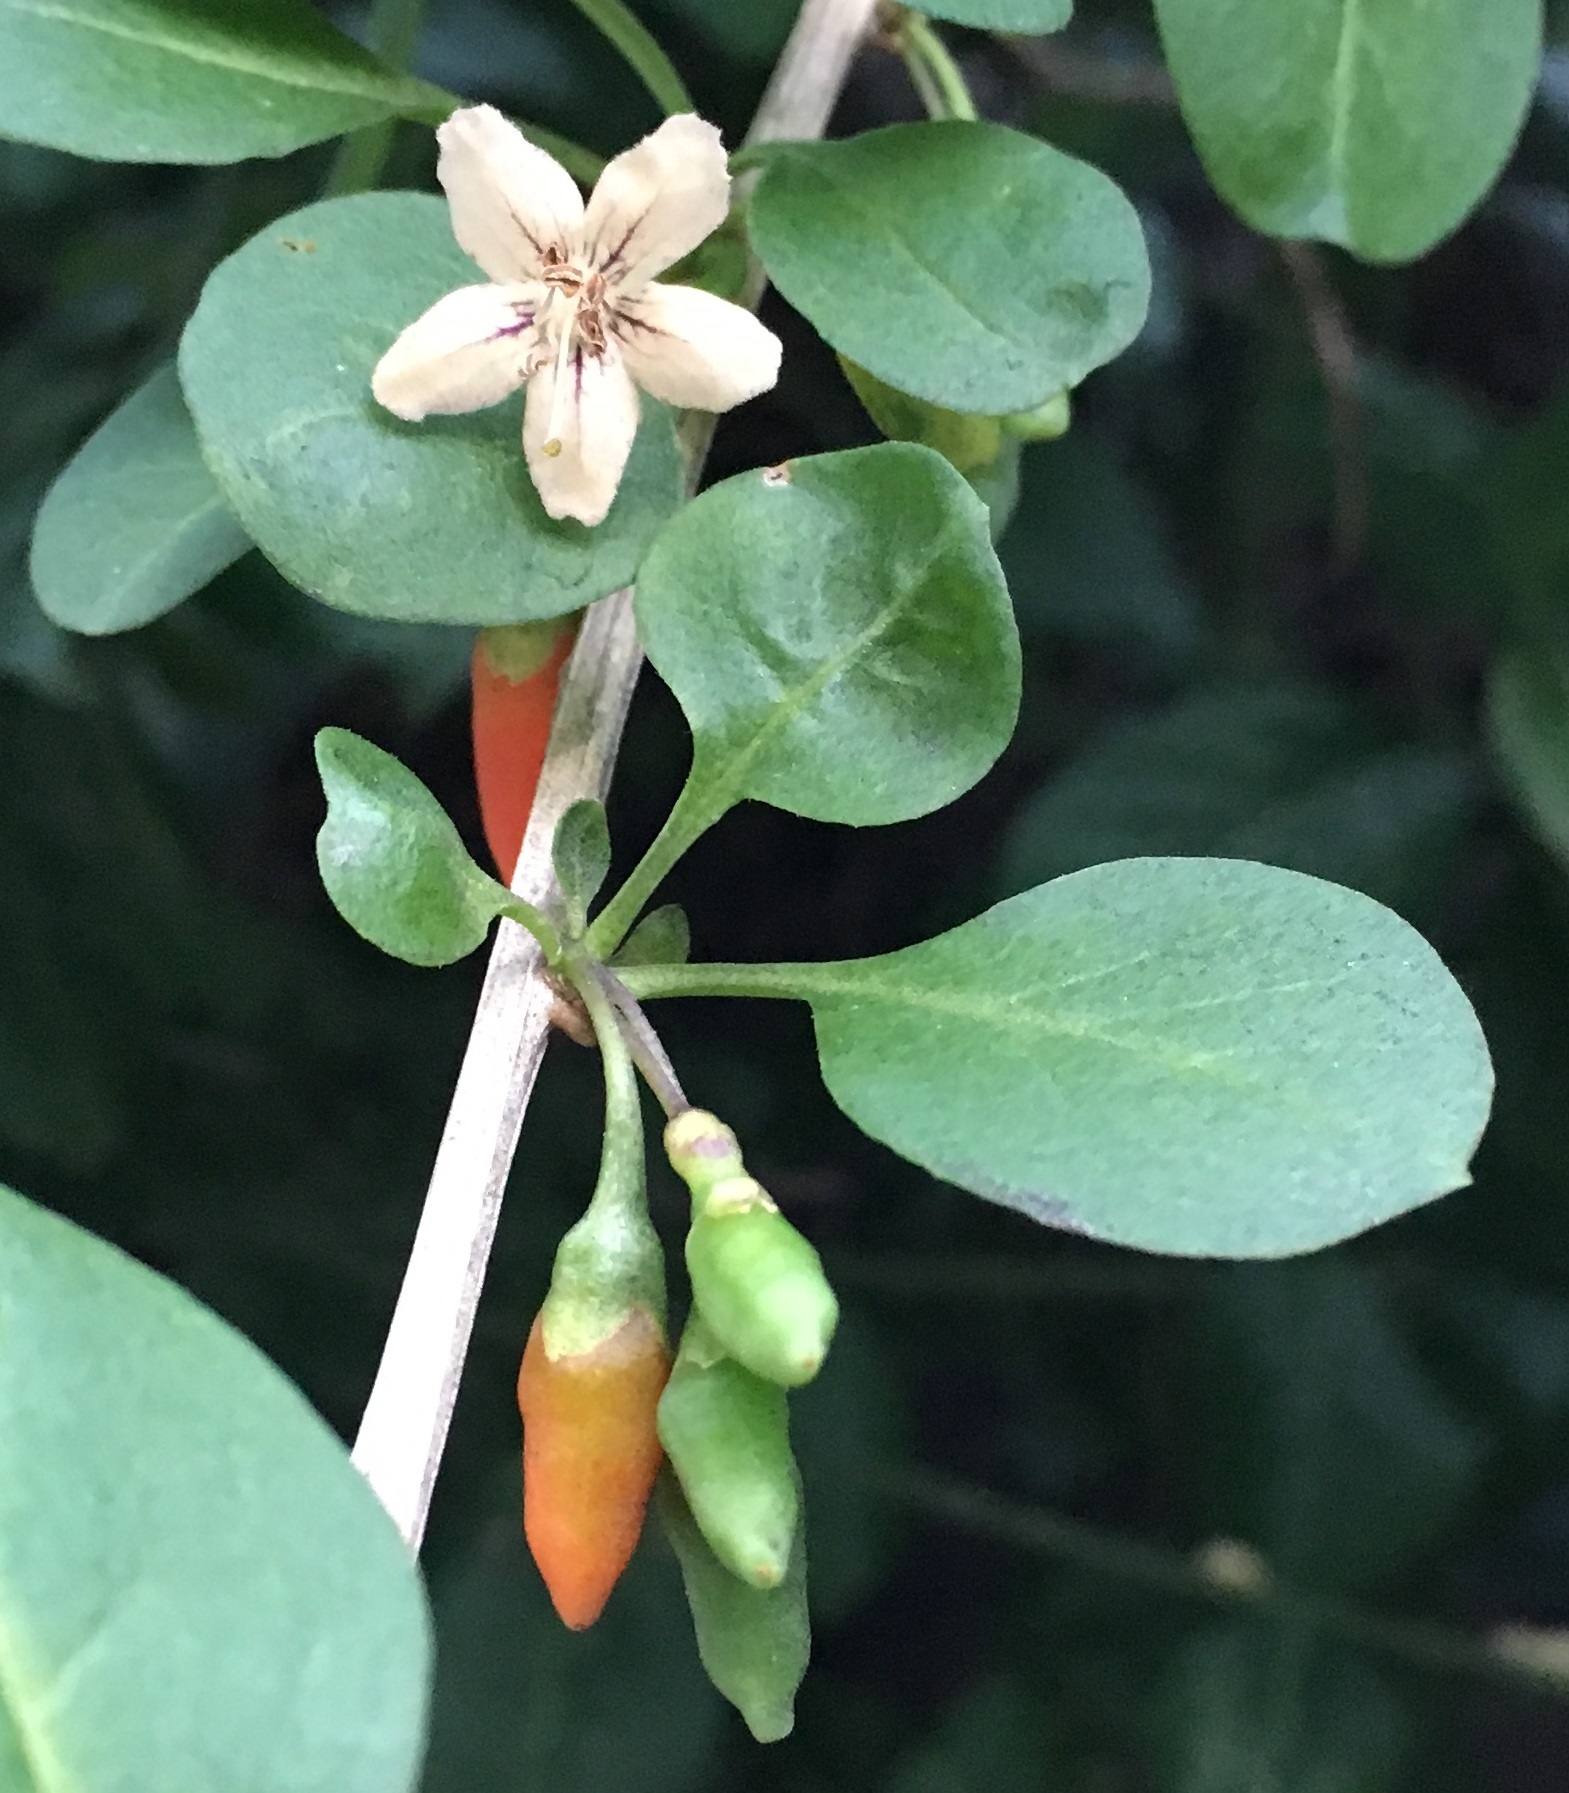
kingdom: Plantae
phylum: Tracheophyta
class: Magnoliopsida
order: Solanales
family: Solanaceae
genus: Lycium
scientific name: Lycium barbarum
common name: Duke of argyll's teaplant
